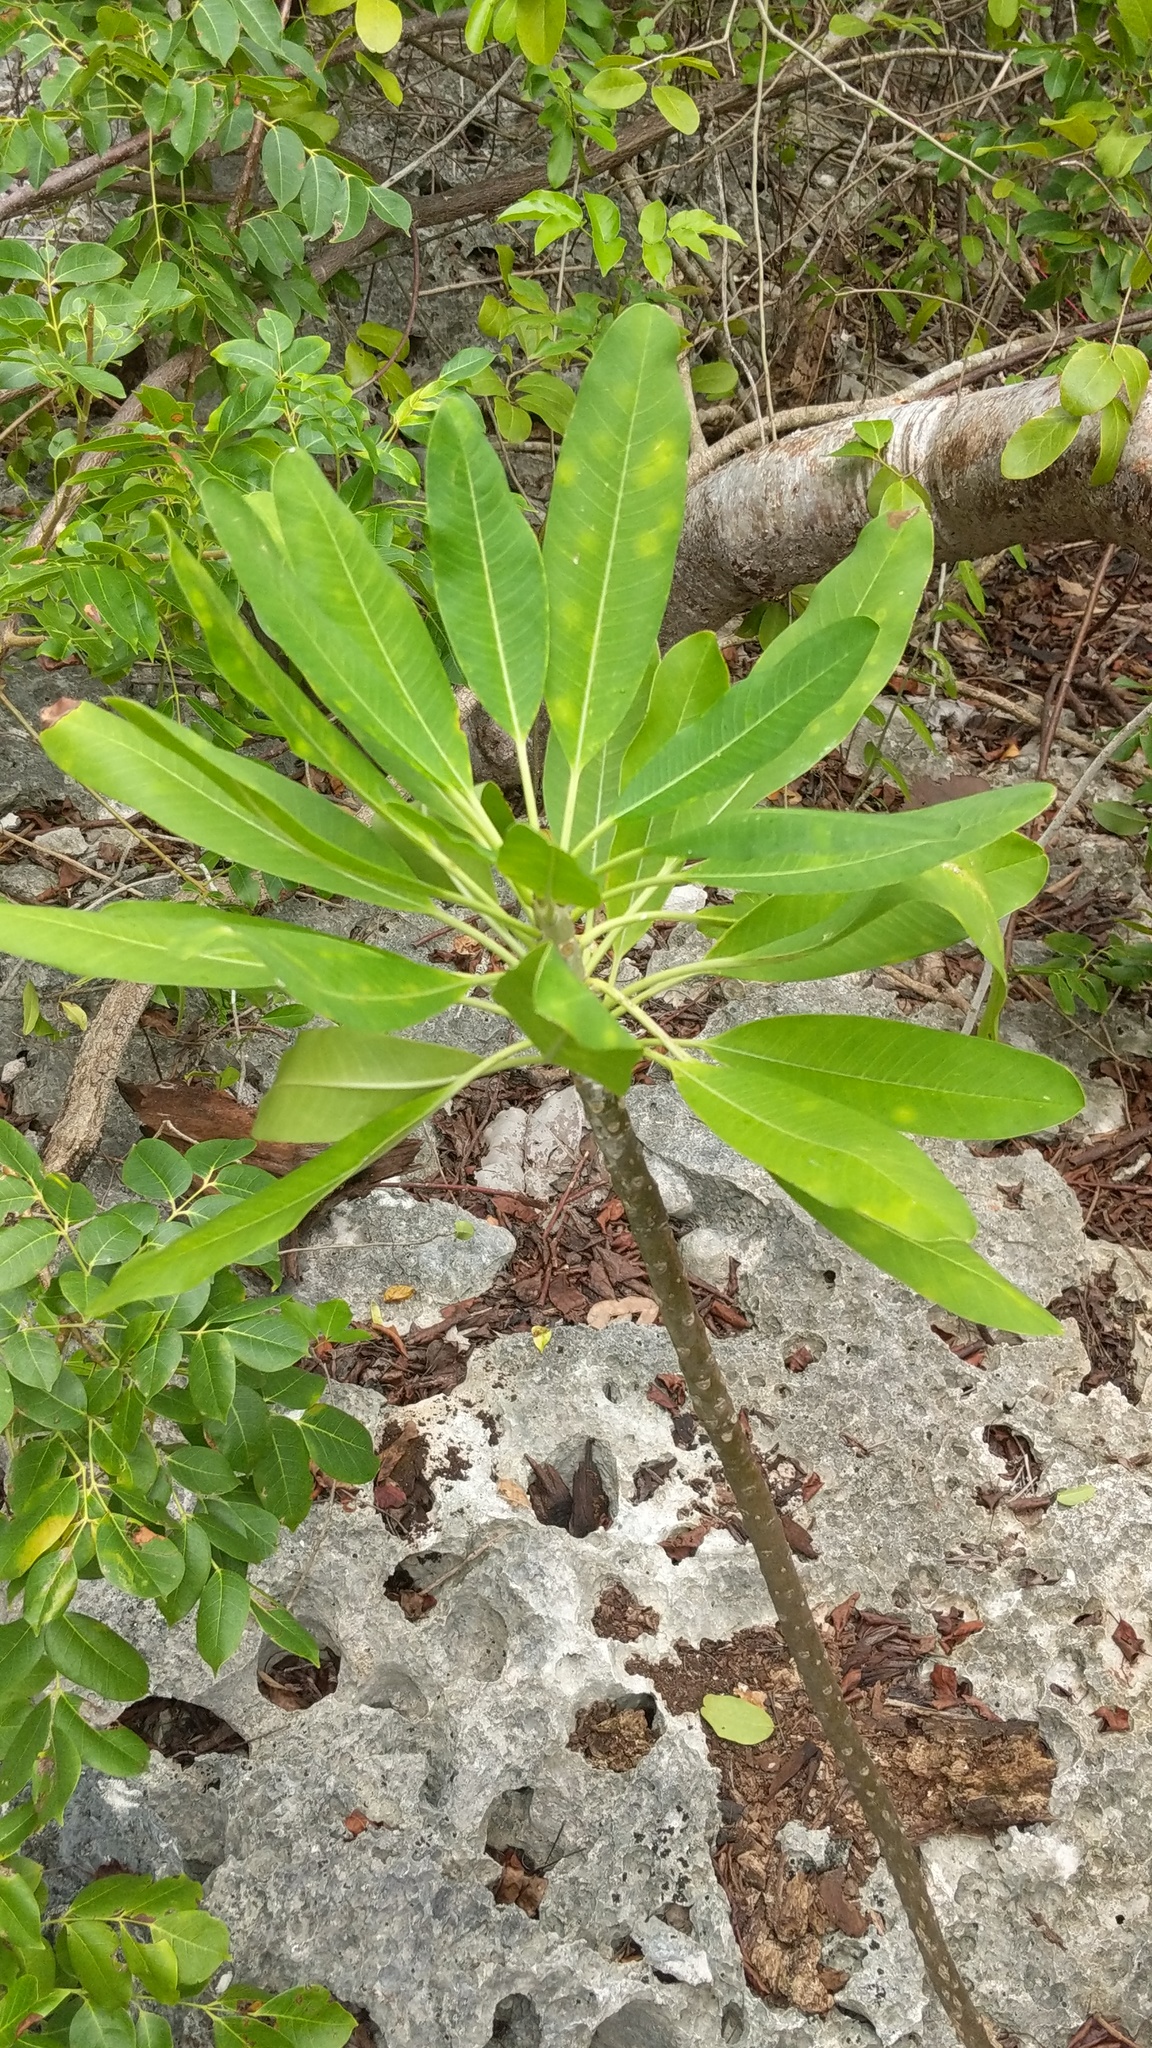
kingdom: Plantae
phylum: Tracheophyta
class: Magnoliopsida
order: Gentianales
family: Apocynaceae
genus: Plumeria
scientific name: Plumeria obtusa
